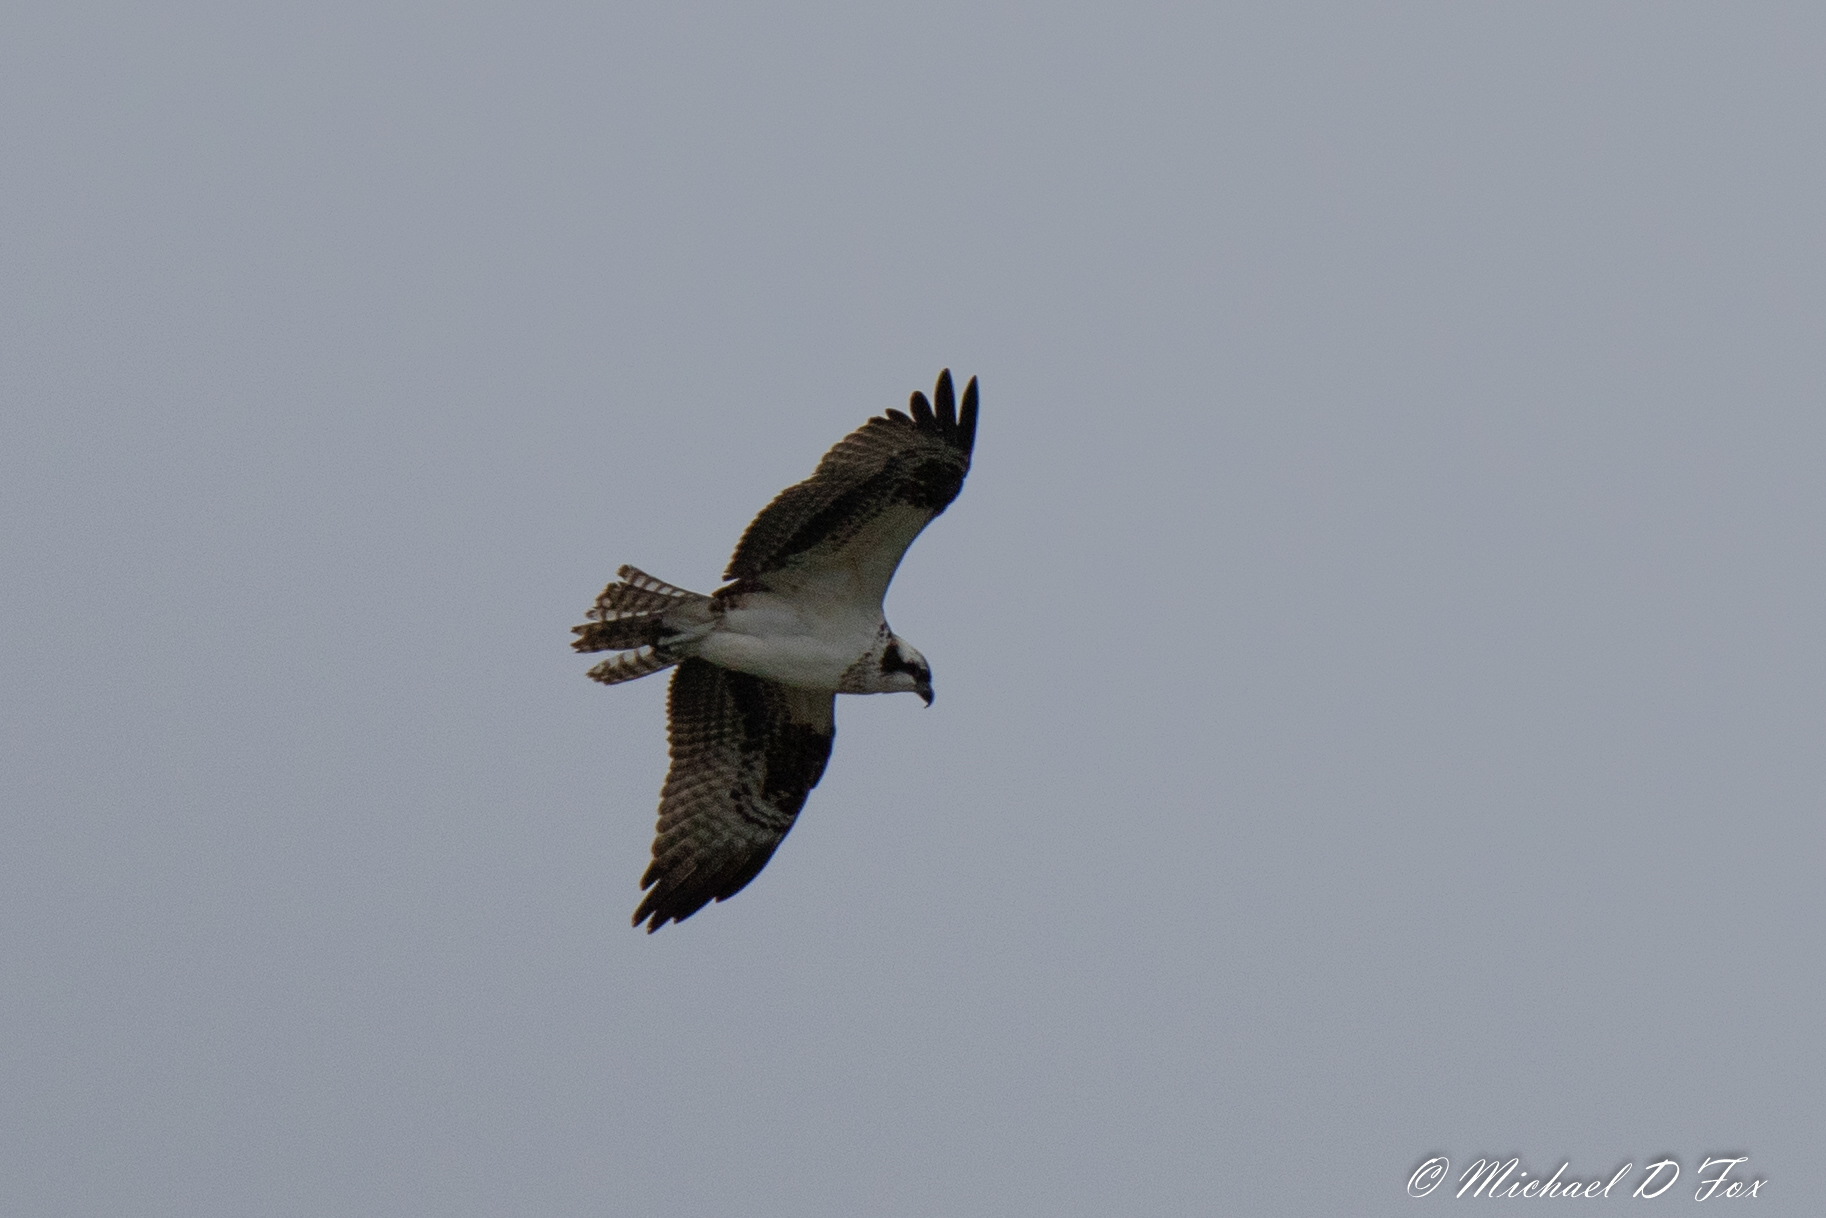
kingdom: Animalia
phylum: Chordata
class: Aves
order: Accipitriformes
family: Pandionidae
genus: Pandion
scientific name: Pandion haliaetus
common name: Osprey
